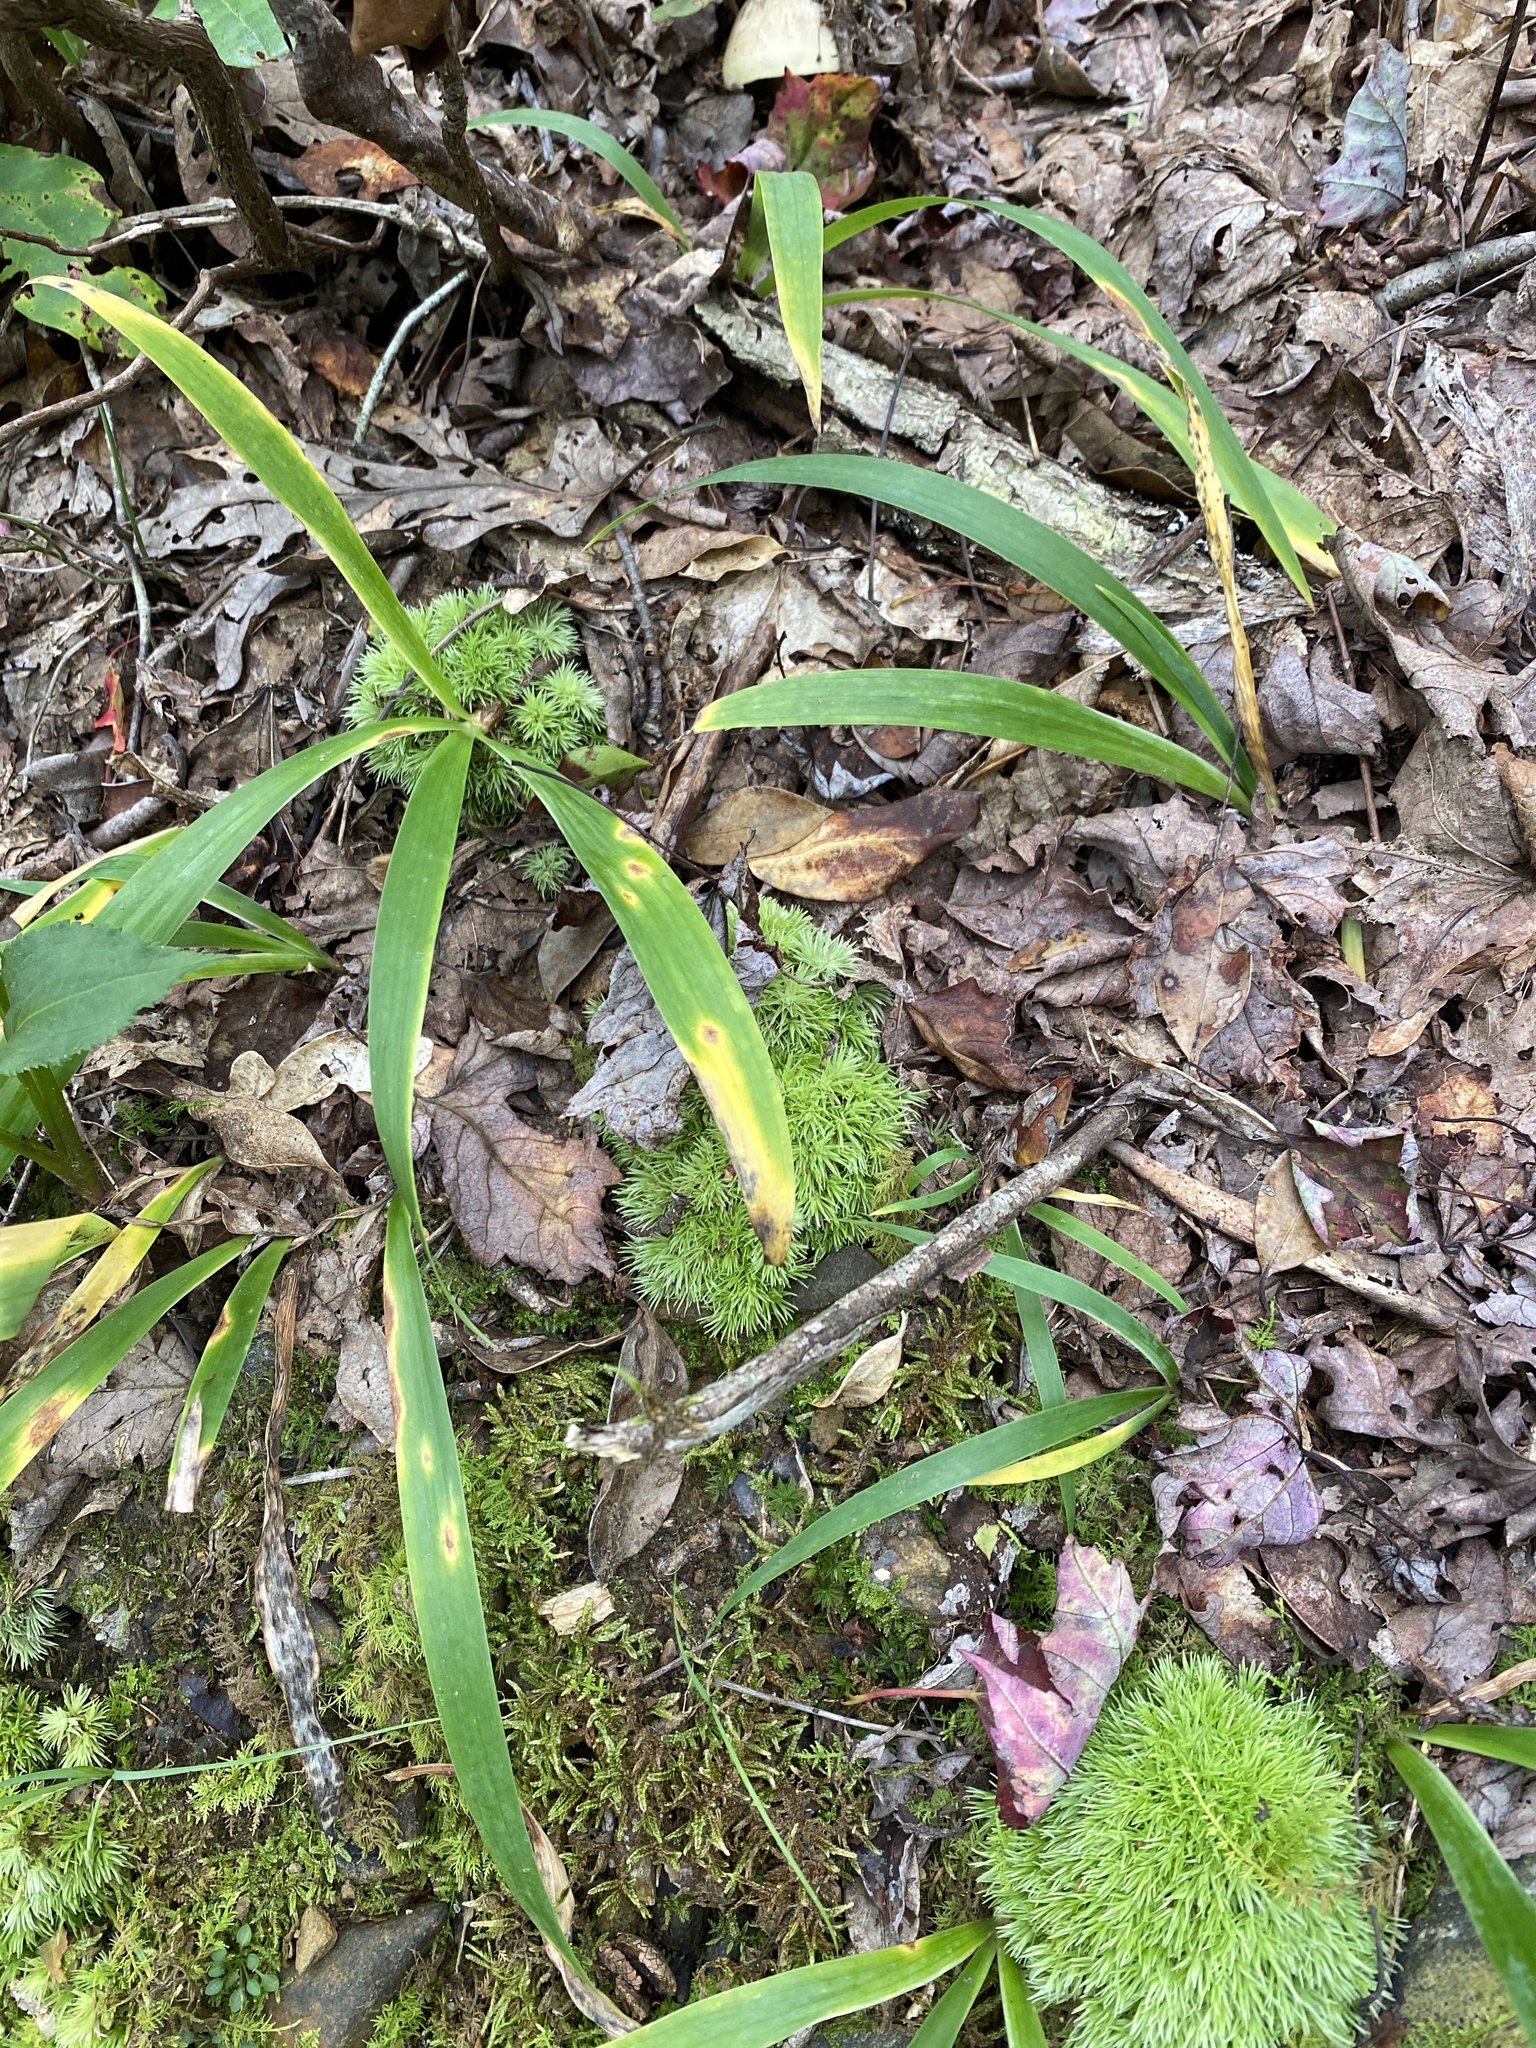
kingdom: Plantae
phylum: Tracheophyta
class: Liliopsida
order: Asparagales
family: Iridaceae
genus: Iris
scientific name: Iris verna
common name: Dwarf iris
